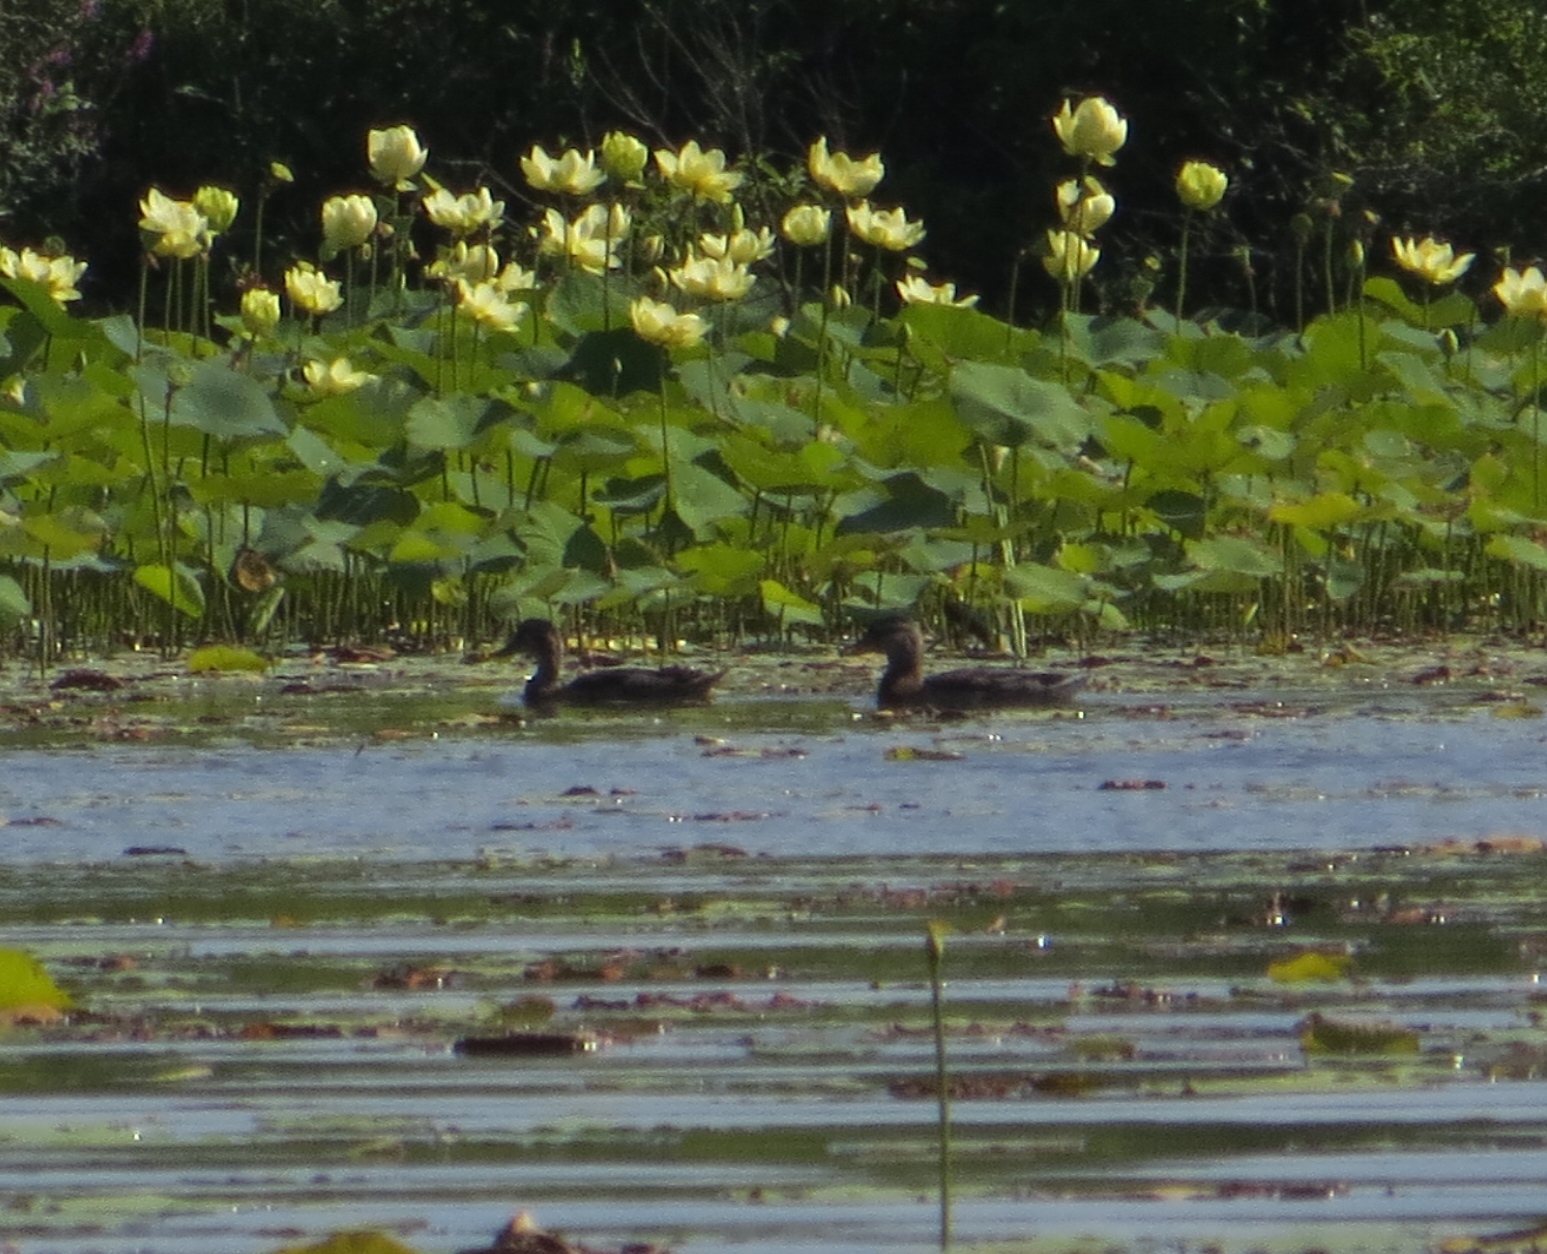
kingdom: Animalia
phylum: Chordata
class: Aves
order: Anseriformes
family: Anatidae
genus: Anas
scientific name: Anas platyrhynchos
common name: Mallard
